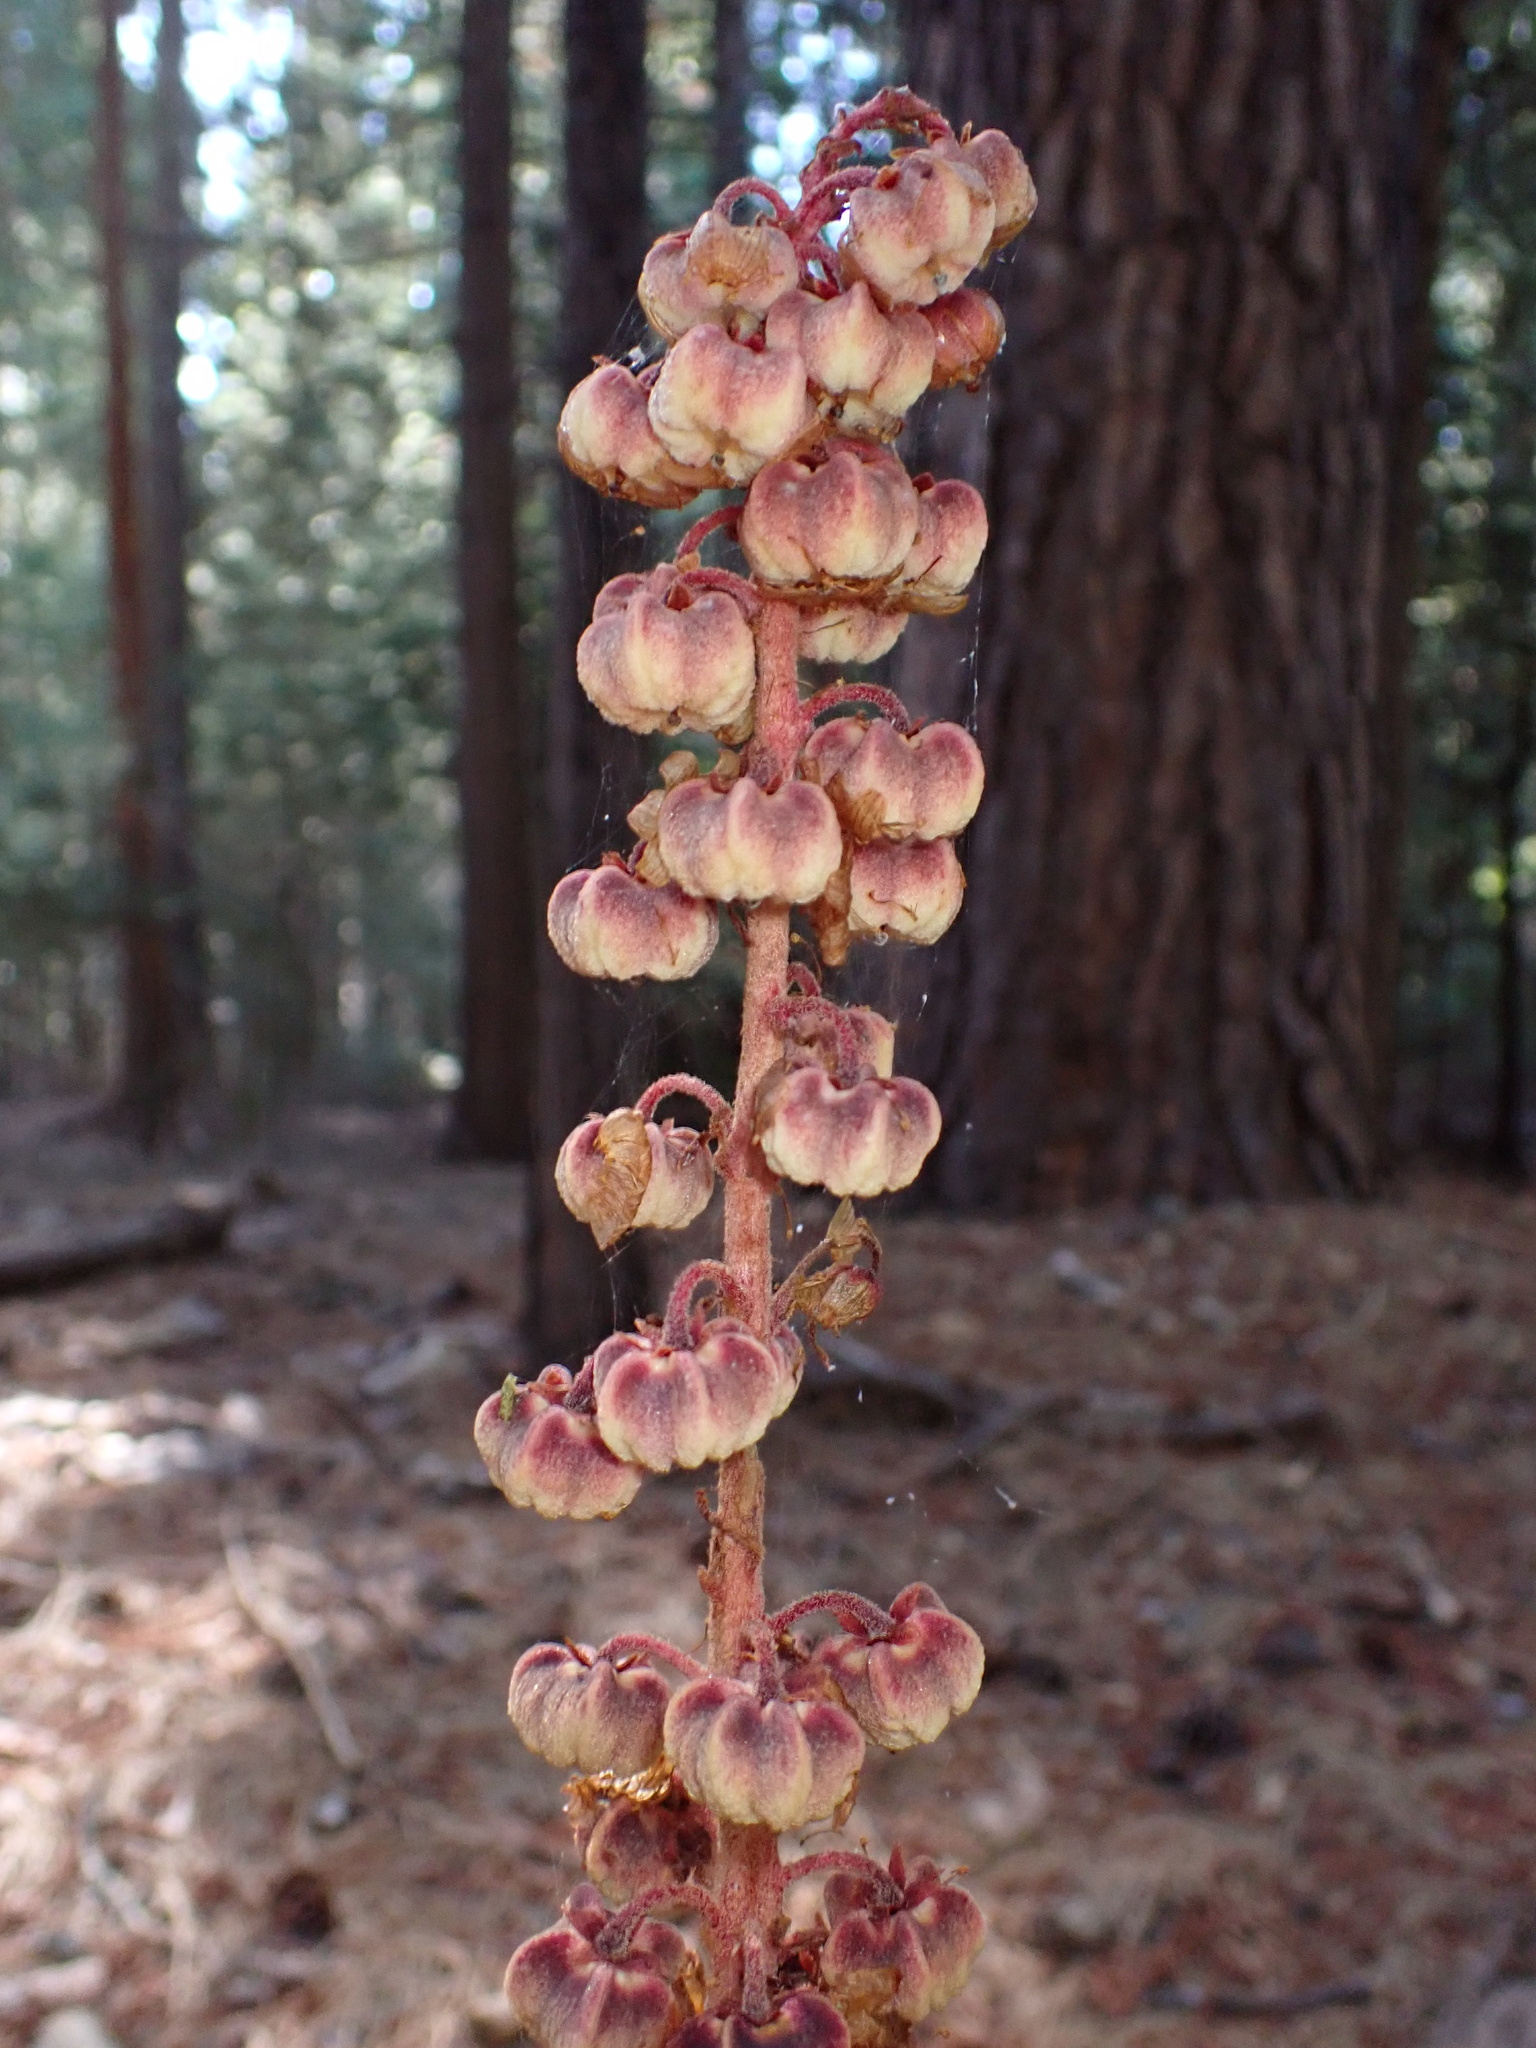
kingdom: Plantae
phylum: Tracheophyta
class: Magnoliopsida
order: Ericales
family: Ericaceae
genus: Pterospora
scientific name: Pterospora andromedea
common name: Giant bird's-nest
